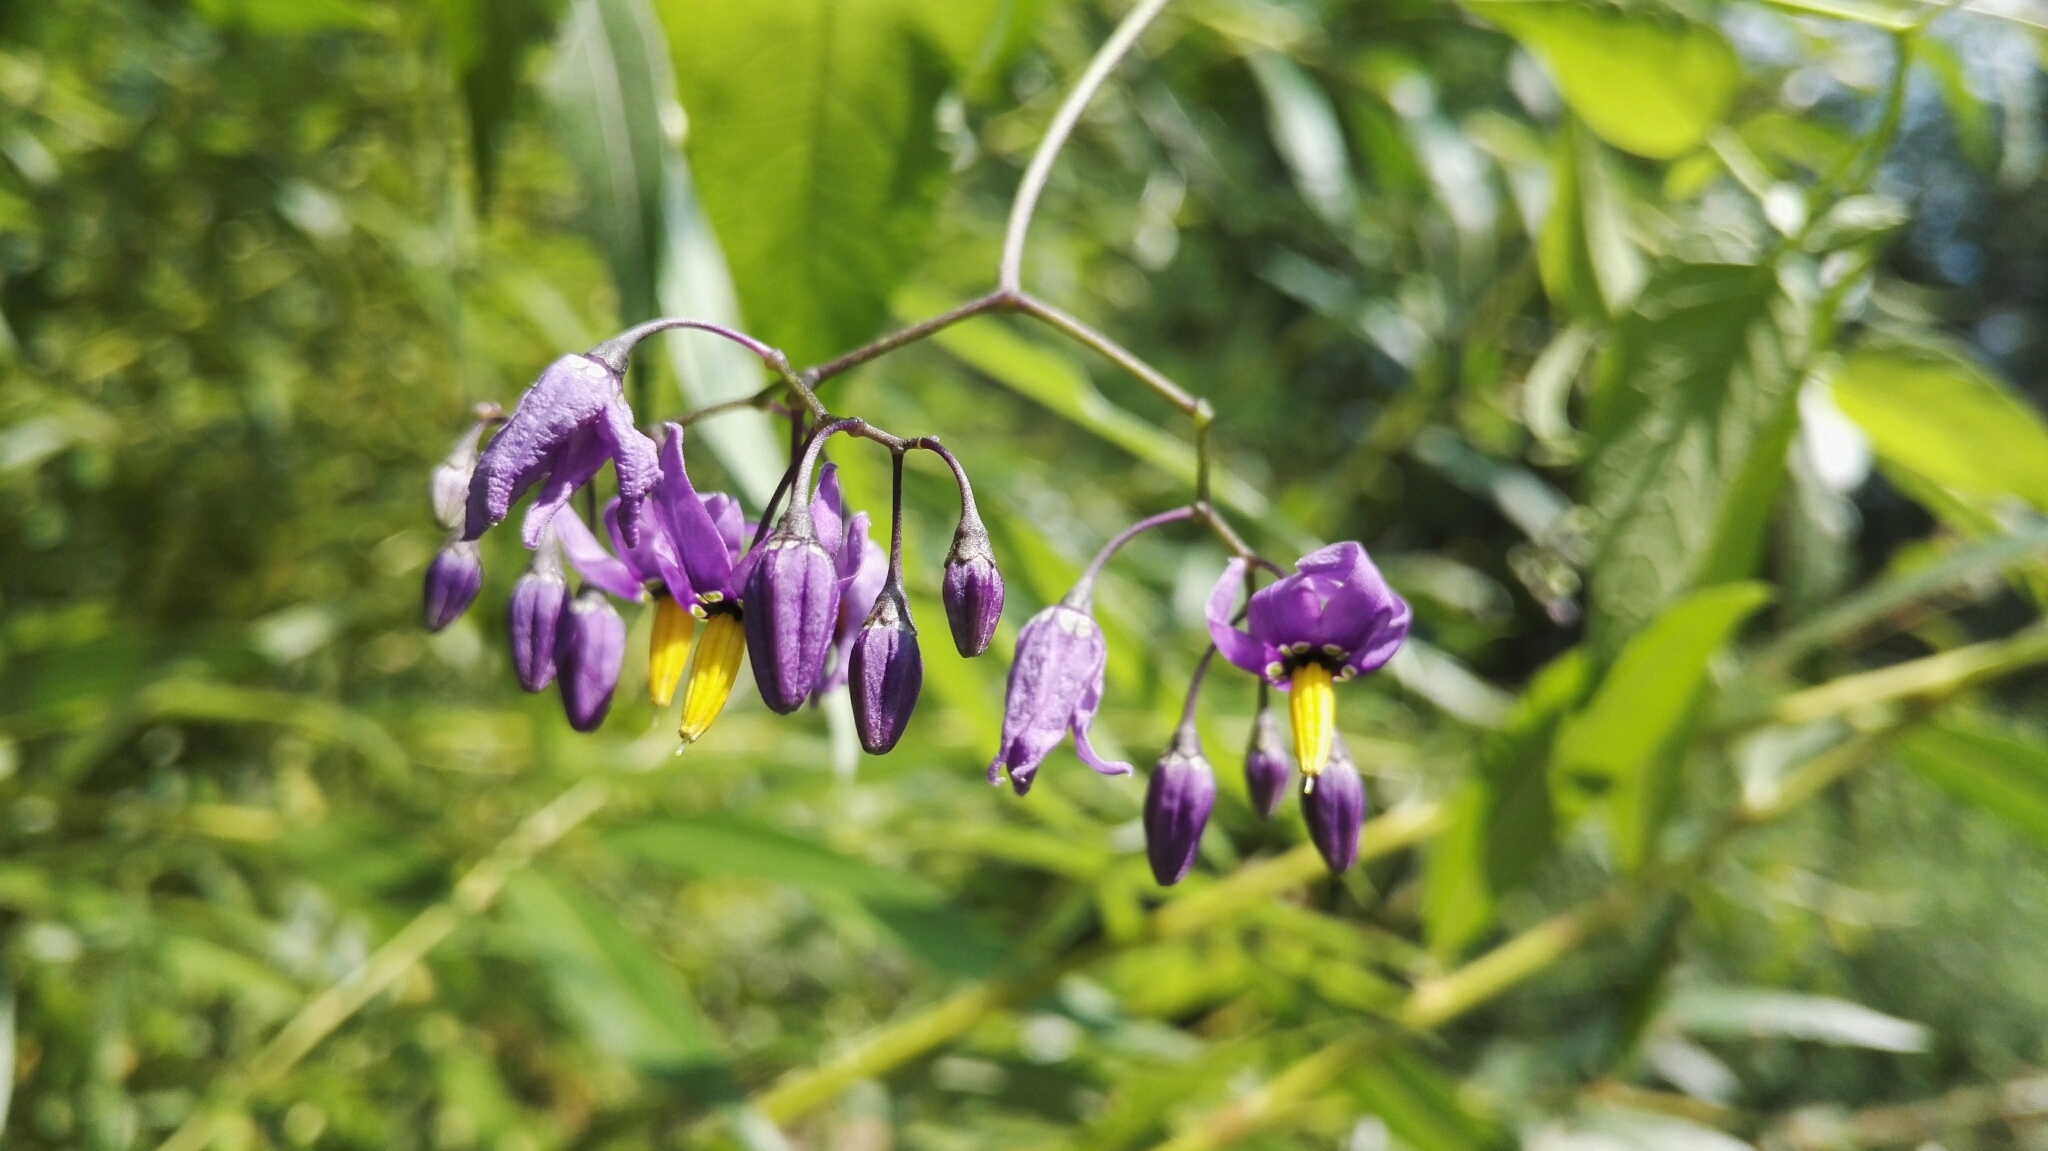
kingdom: Plantae
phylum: Tracheophyta
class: Magnoliopsida
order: Solanales
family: Solanaceae
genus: Solanum
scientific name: Solanum dulcamara
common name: Climbing nightshade
